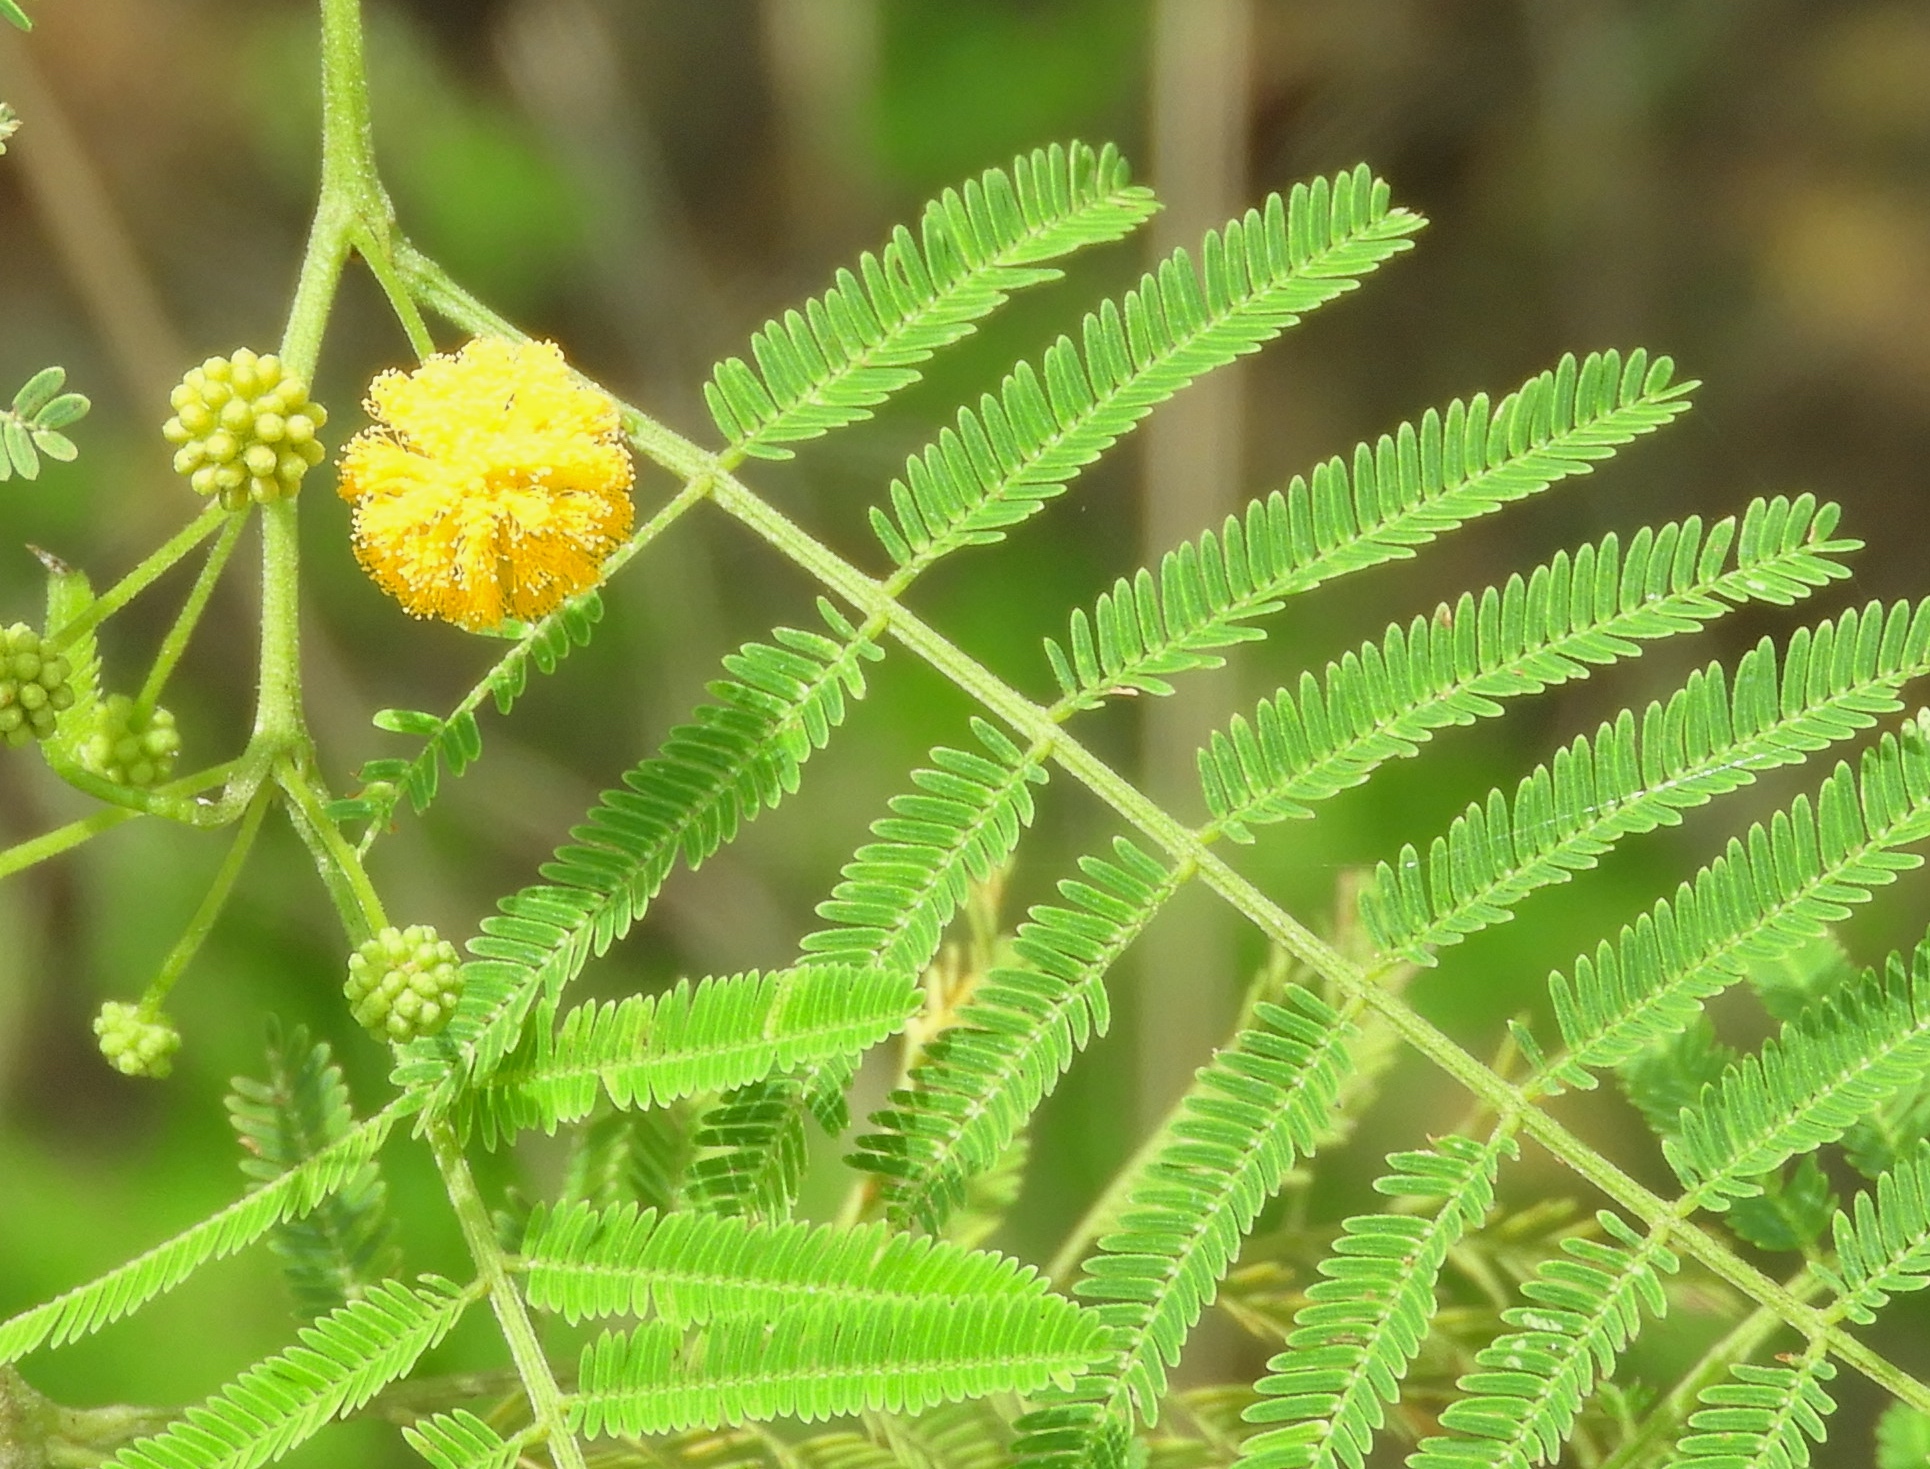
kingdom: Plantae
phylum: Tracheophyta
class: Magnoliopsida
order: Fabales
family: Fabaceae
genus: Vachellia
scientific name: Vachellia macracantha
